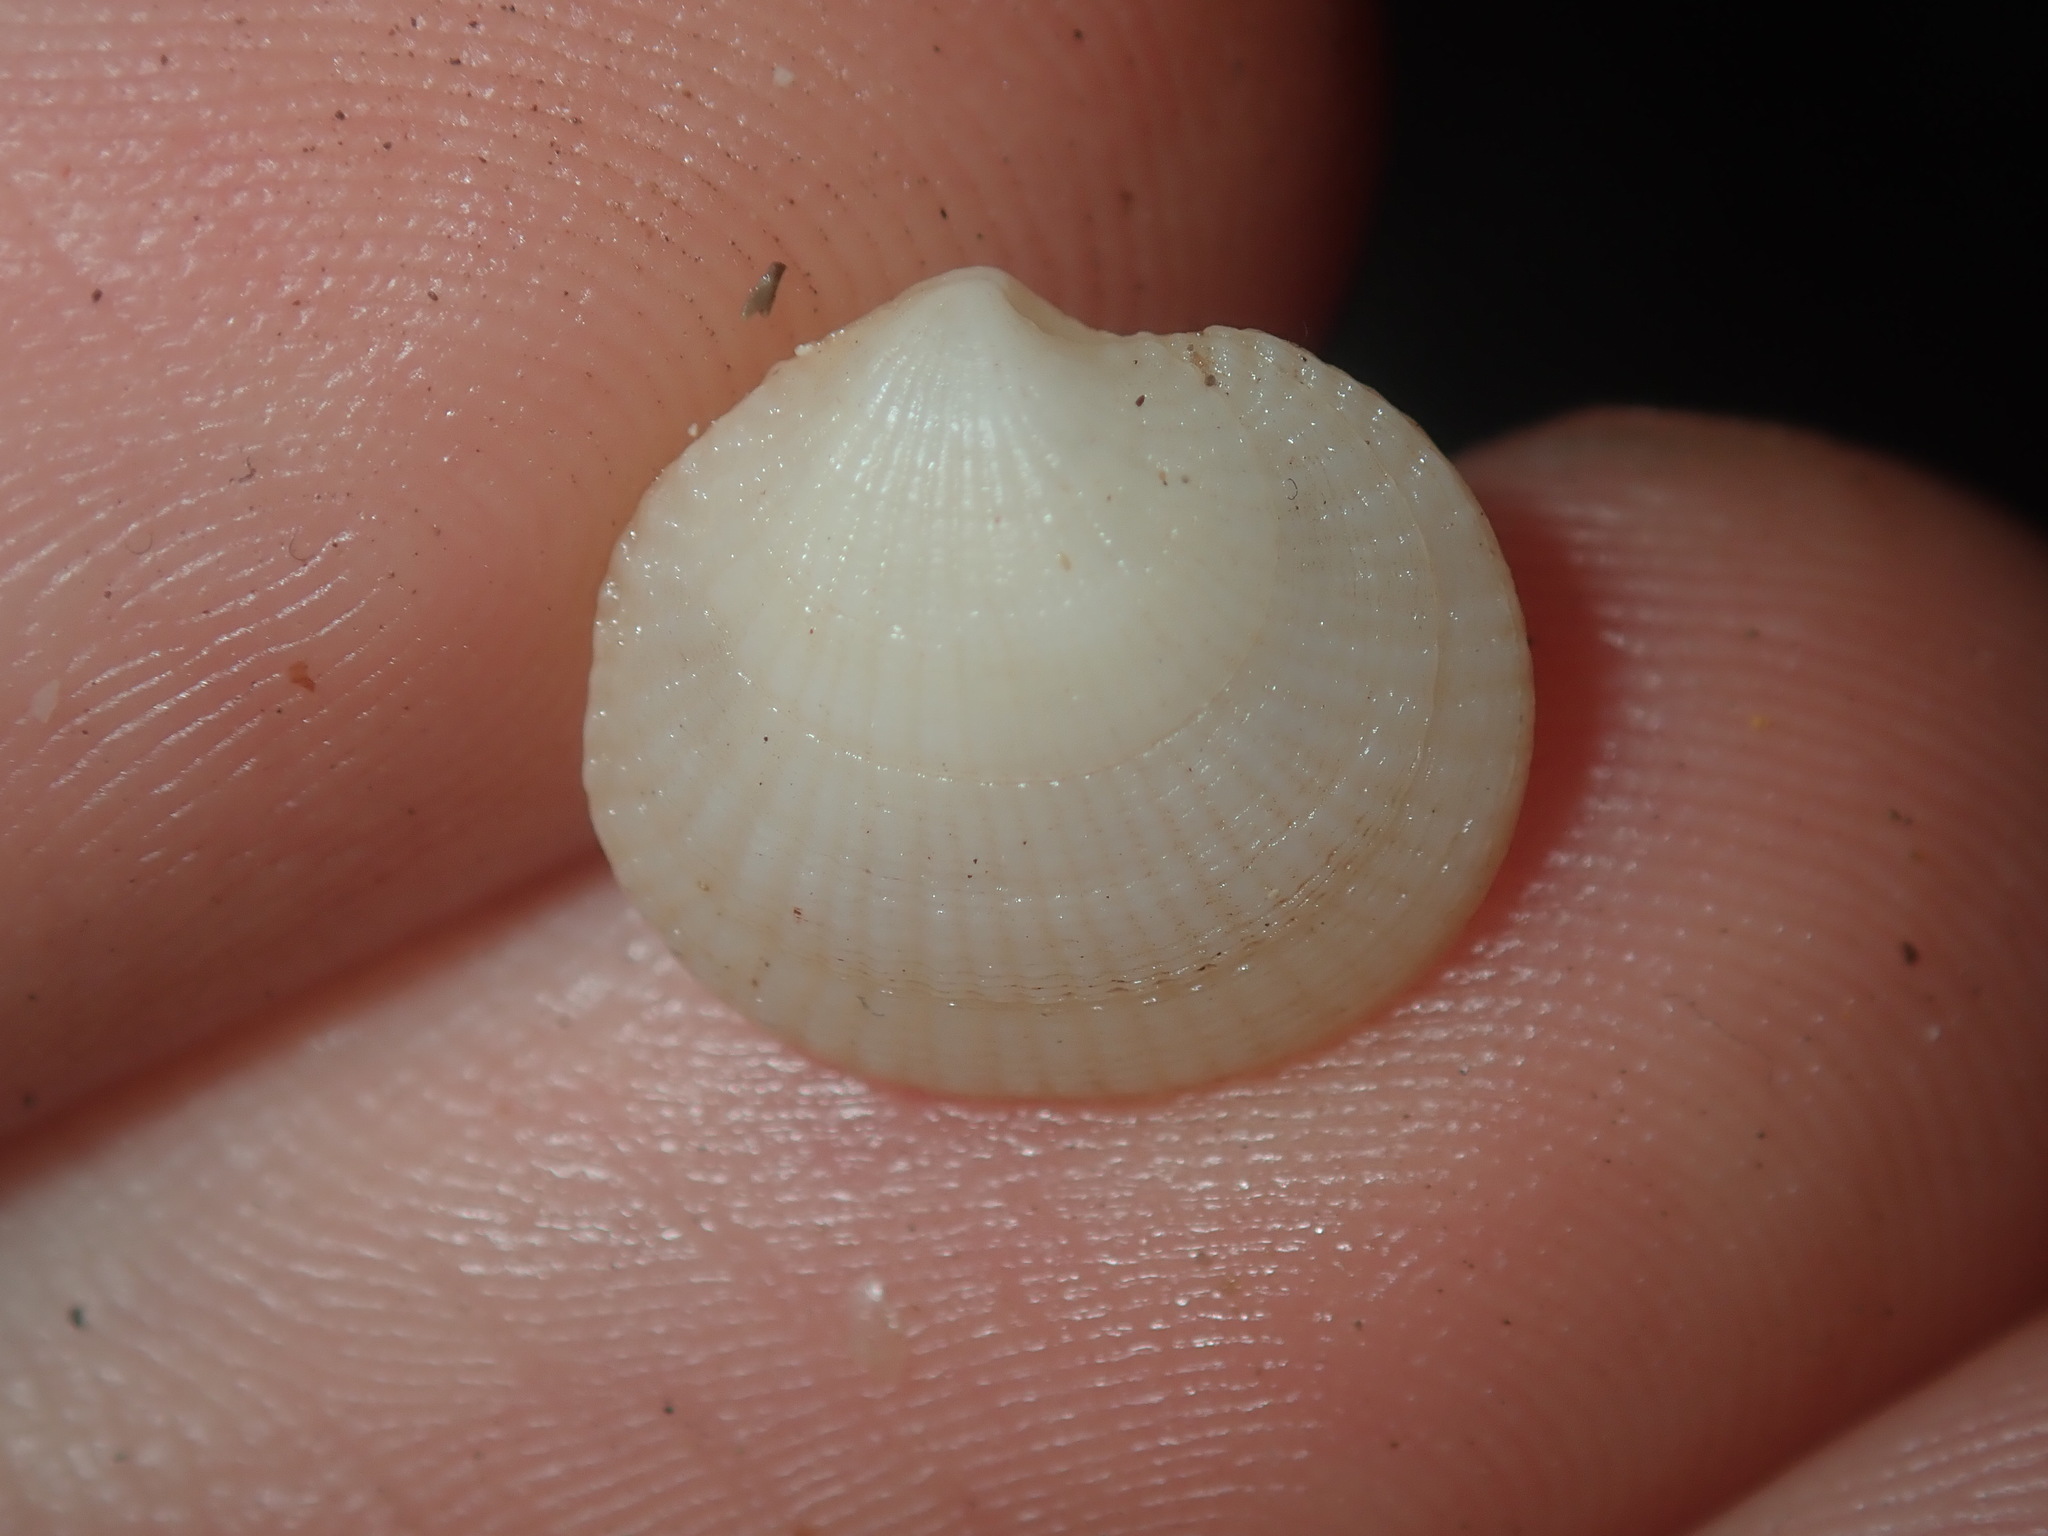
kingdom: Animalia
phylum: Mollusca
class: Bivalvia
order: Lucinida
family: Lucinidae
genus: Ctena
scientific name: Ctena bella
